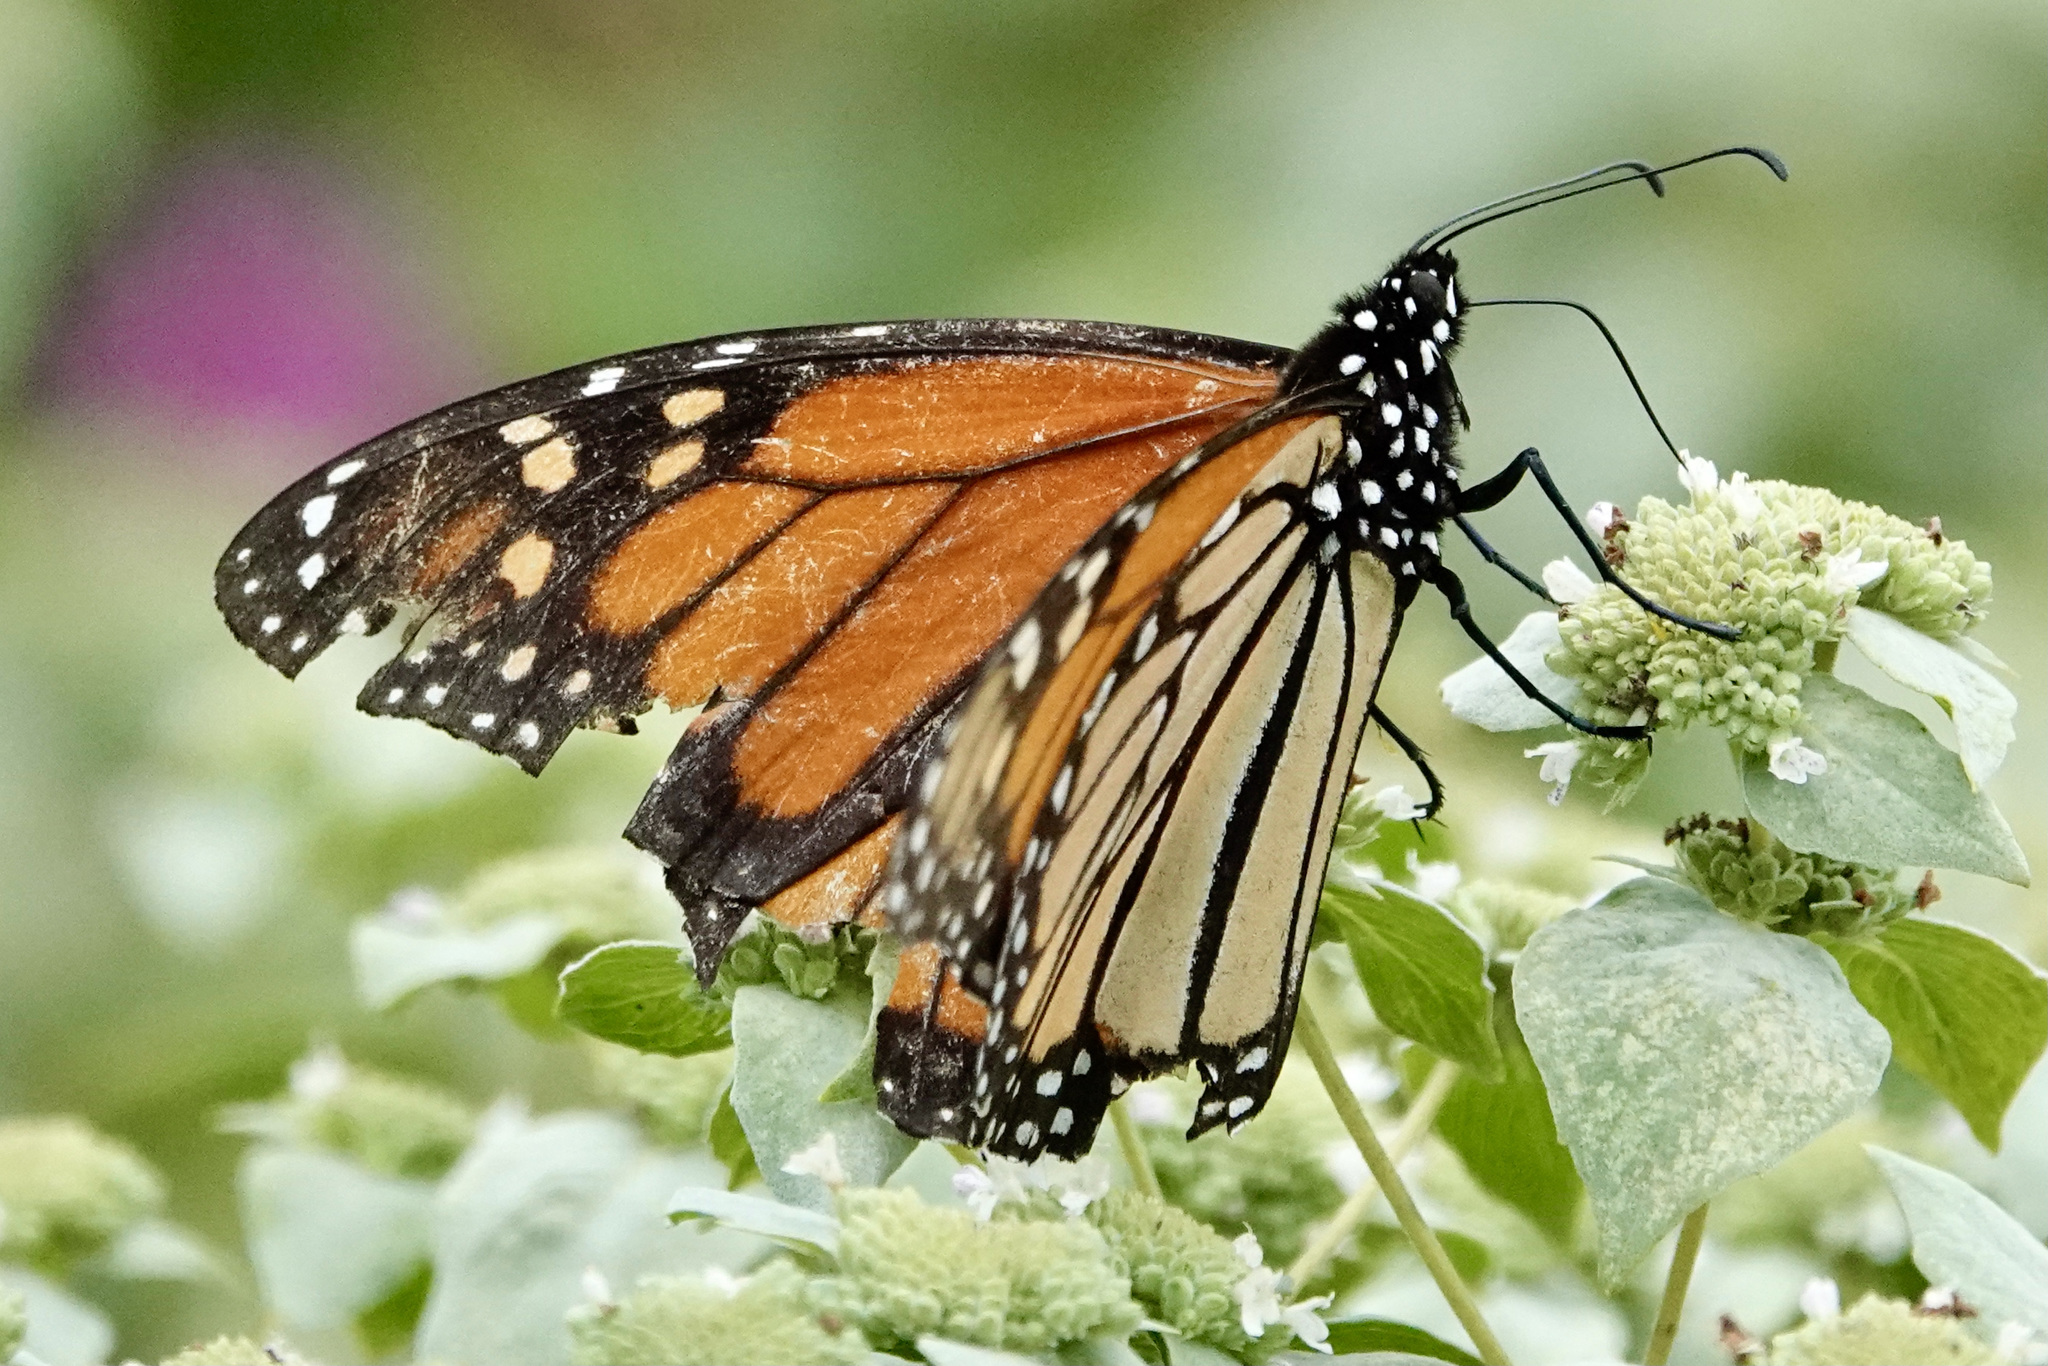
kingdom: Animalia
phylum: Arthropoda
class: Insecta
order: Lepidoptera
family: Nymphalidae
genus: Danaus
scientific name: Danaus plexippus
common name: Monarch
